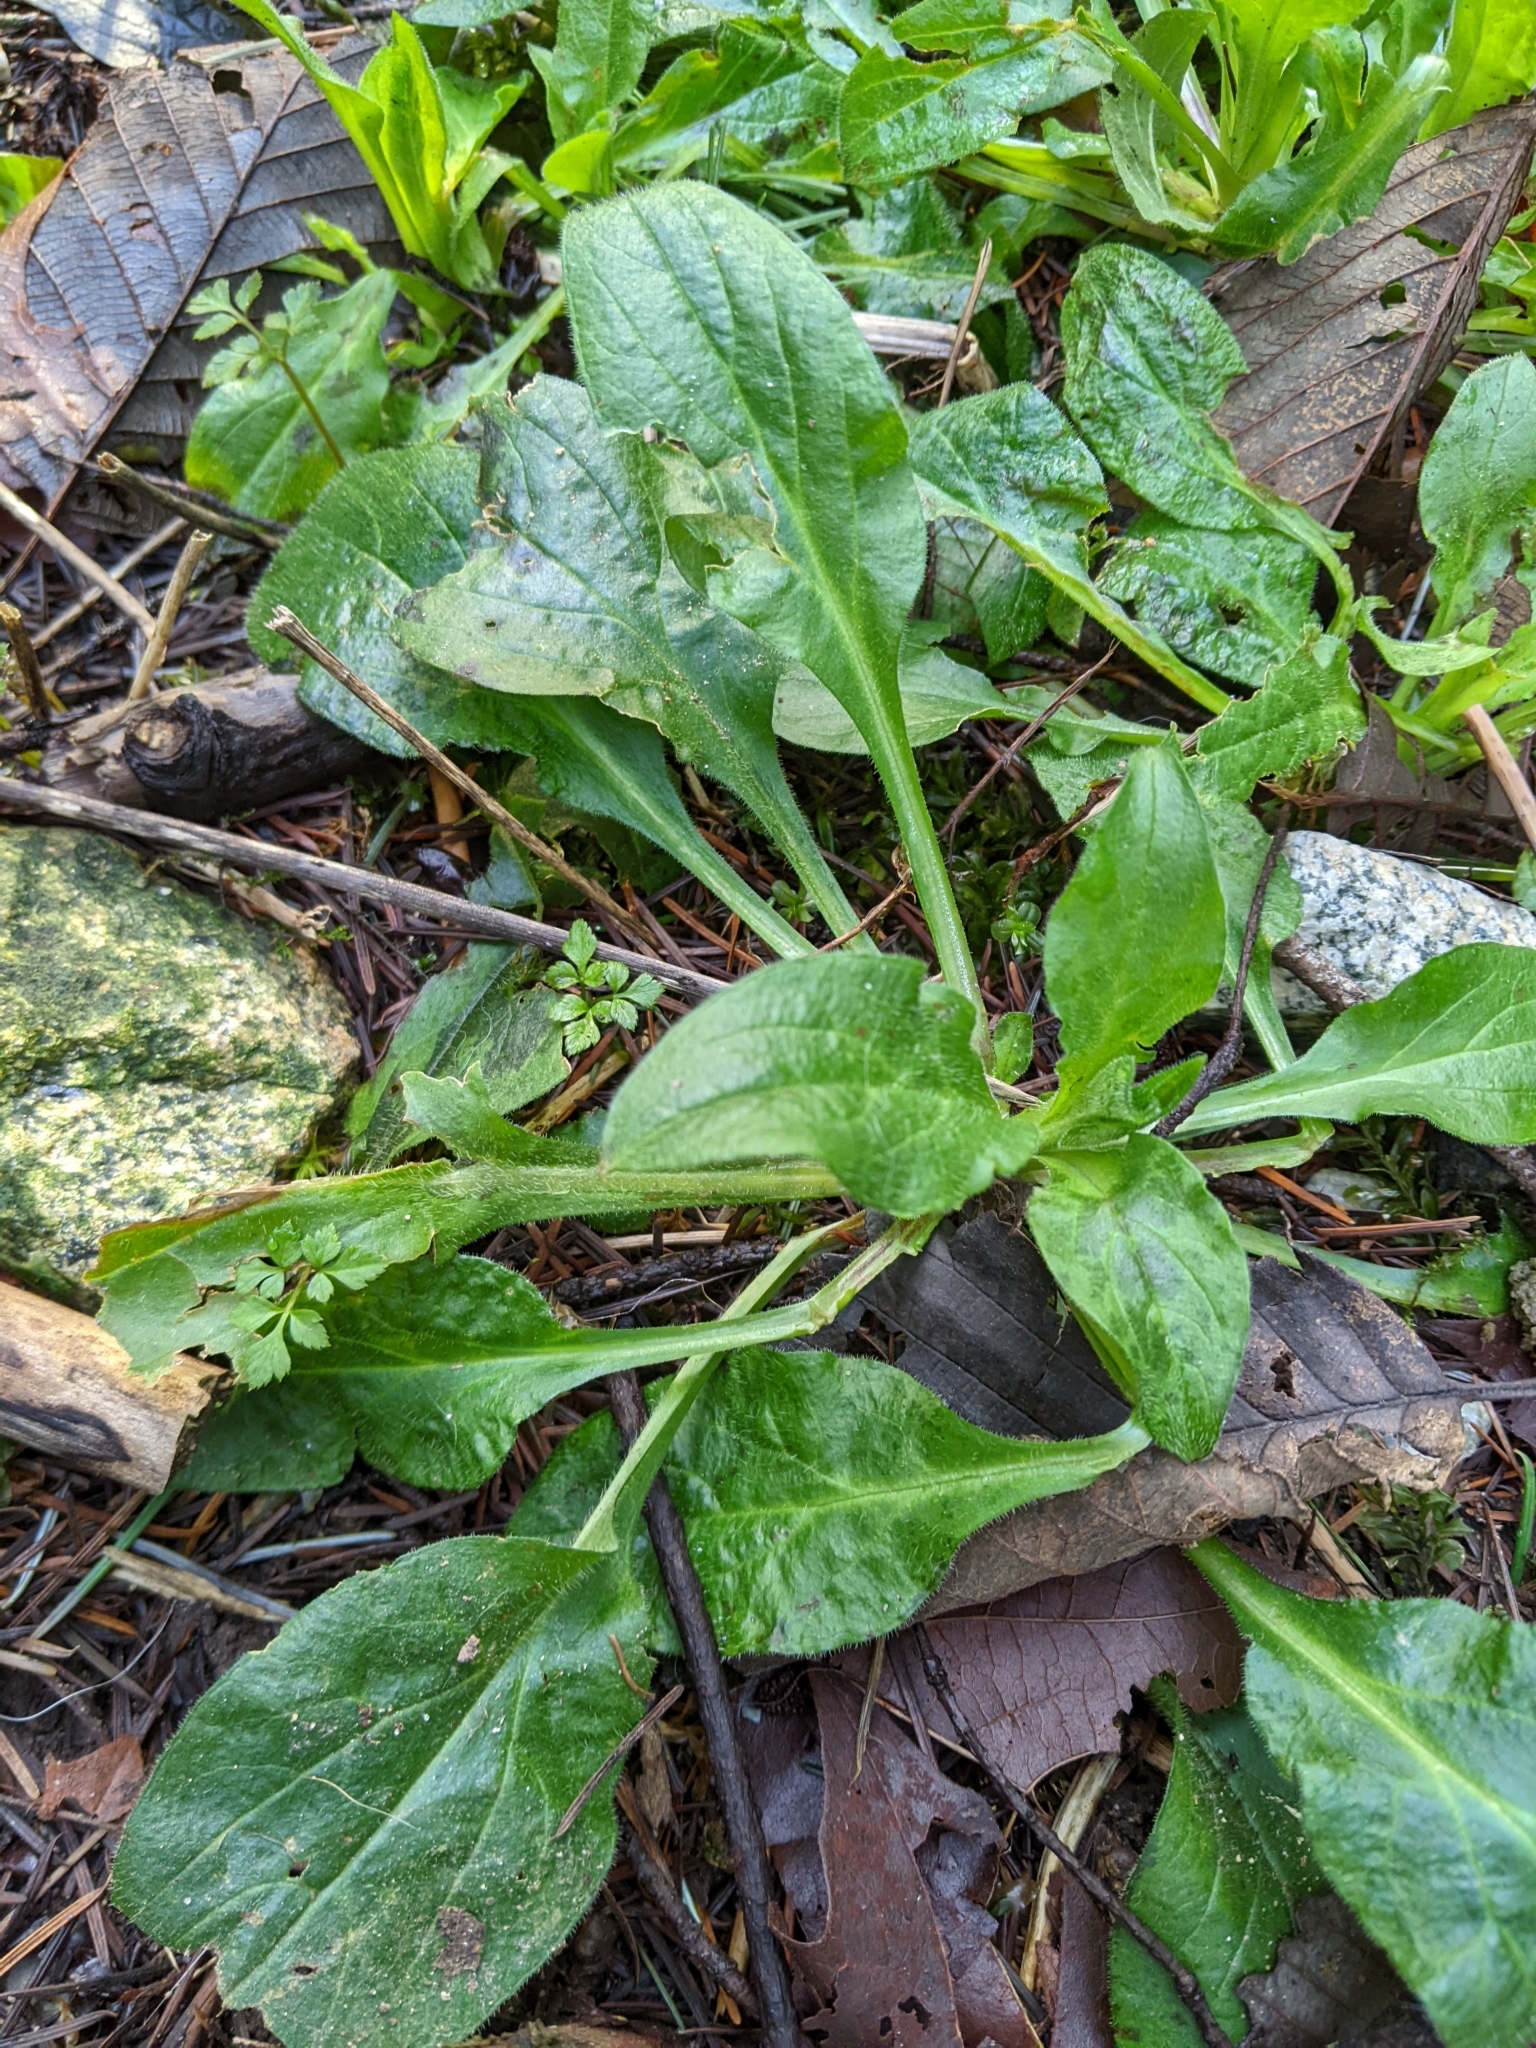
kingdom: Plantae
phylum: Tracheophyta
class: Magnoliopsida
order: Asterales
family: Asteraceae
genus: Bellis
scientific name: Bellis perennis
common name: Lawndaisy
